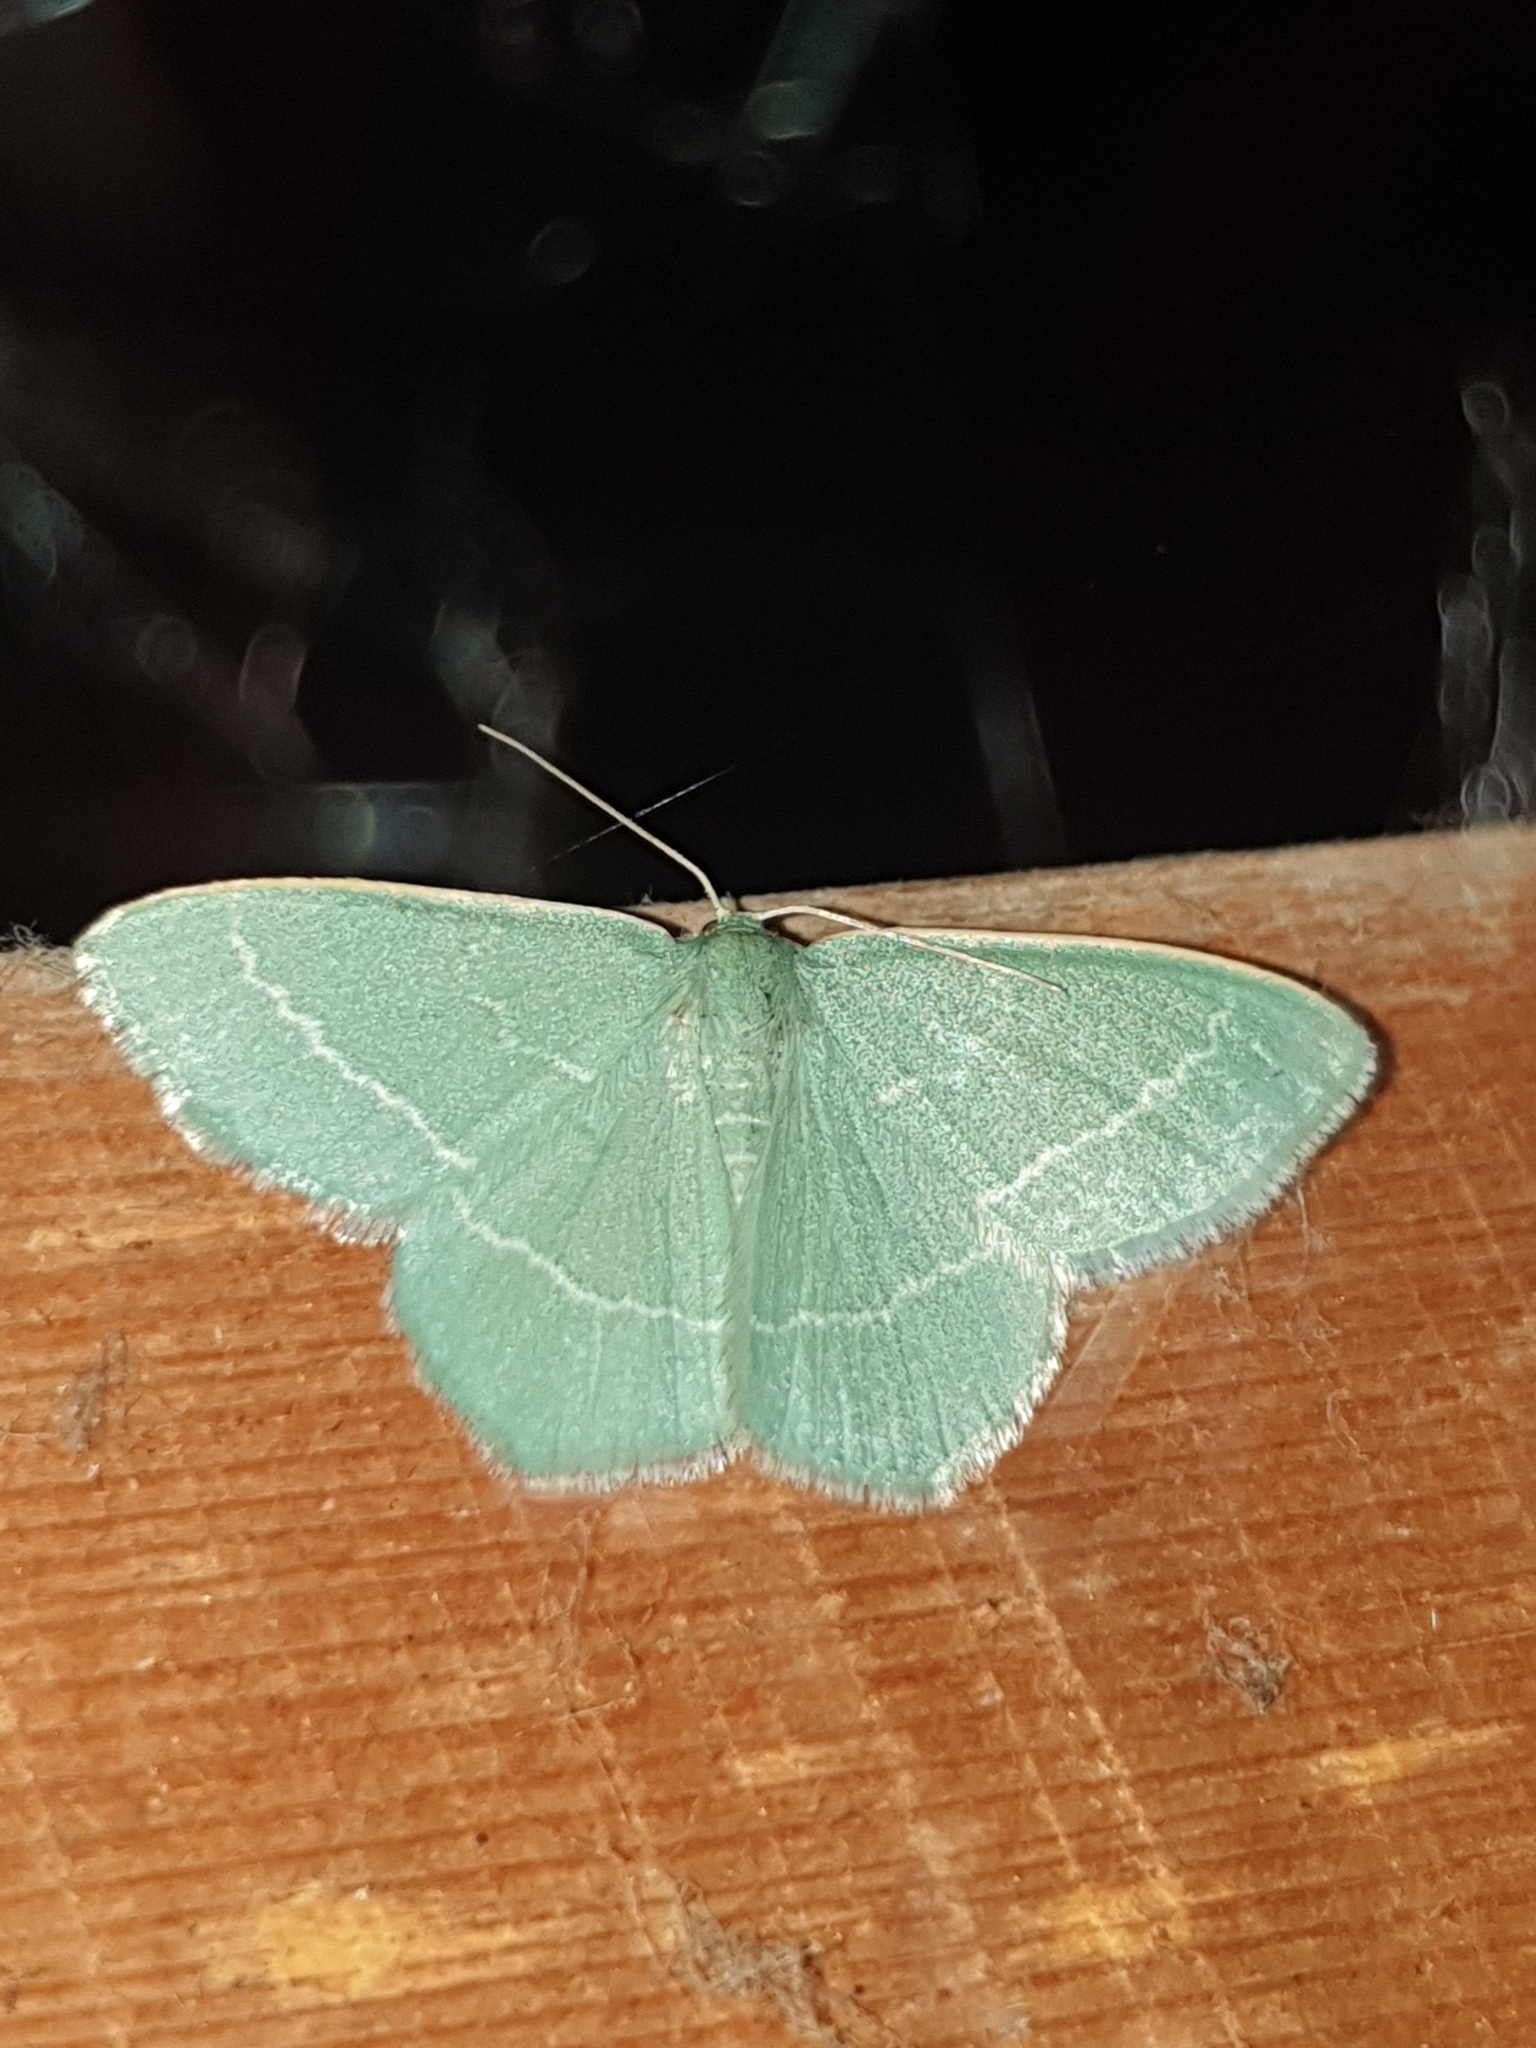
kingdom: Animalia
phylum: Arthropoda
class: Insecta
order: Lepidoptera
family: Geometridae
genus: Chlorissa
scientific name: Chlorissa viridata
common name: Small grass emerald
